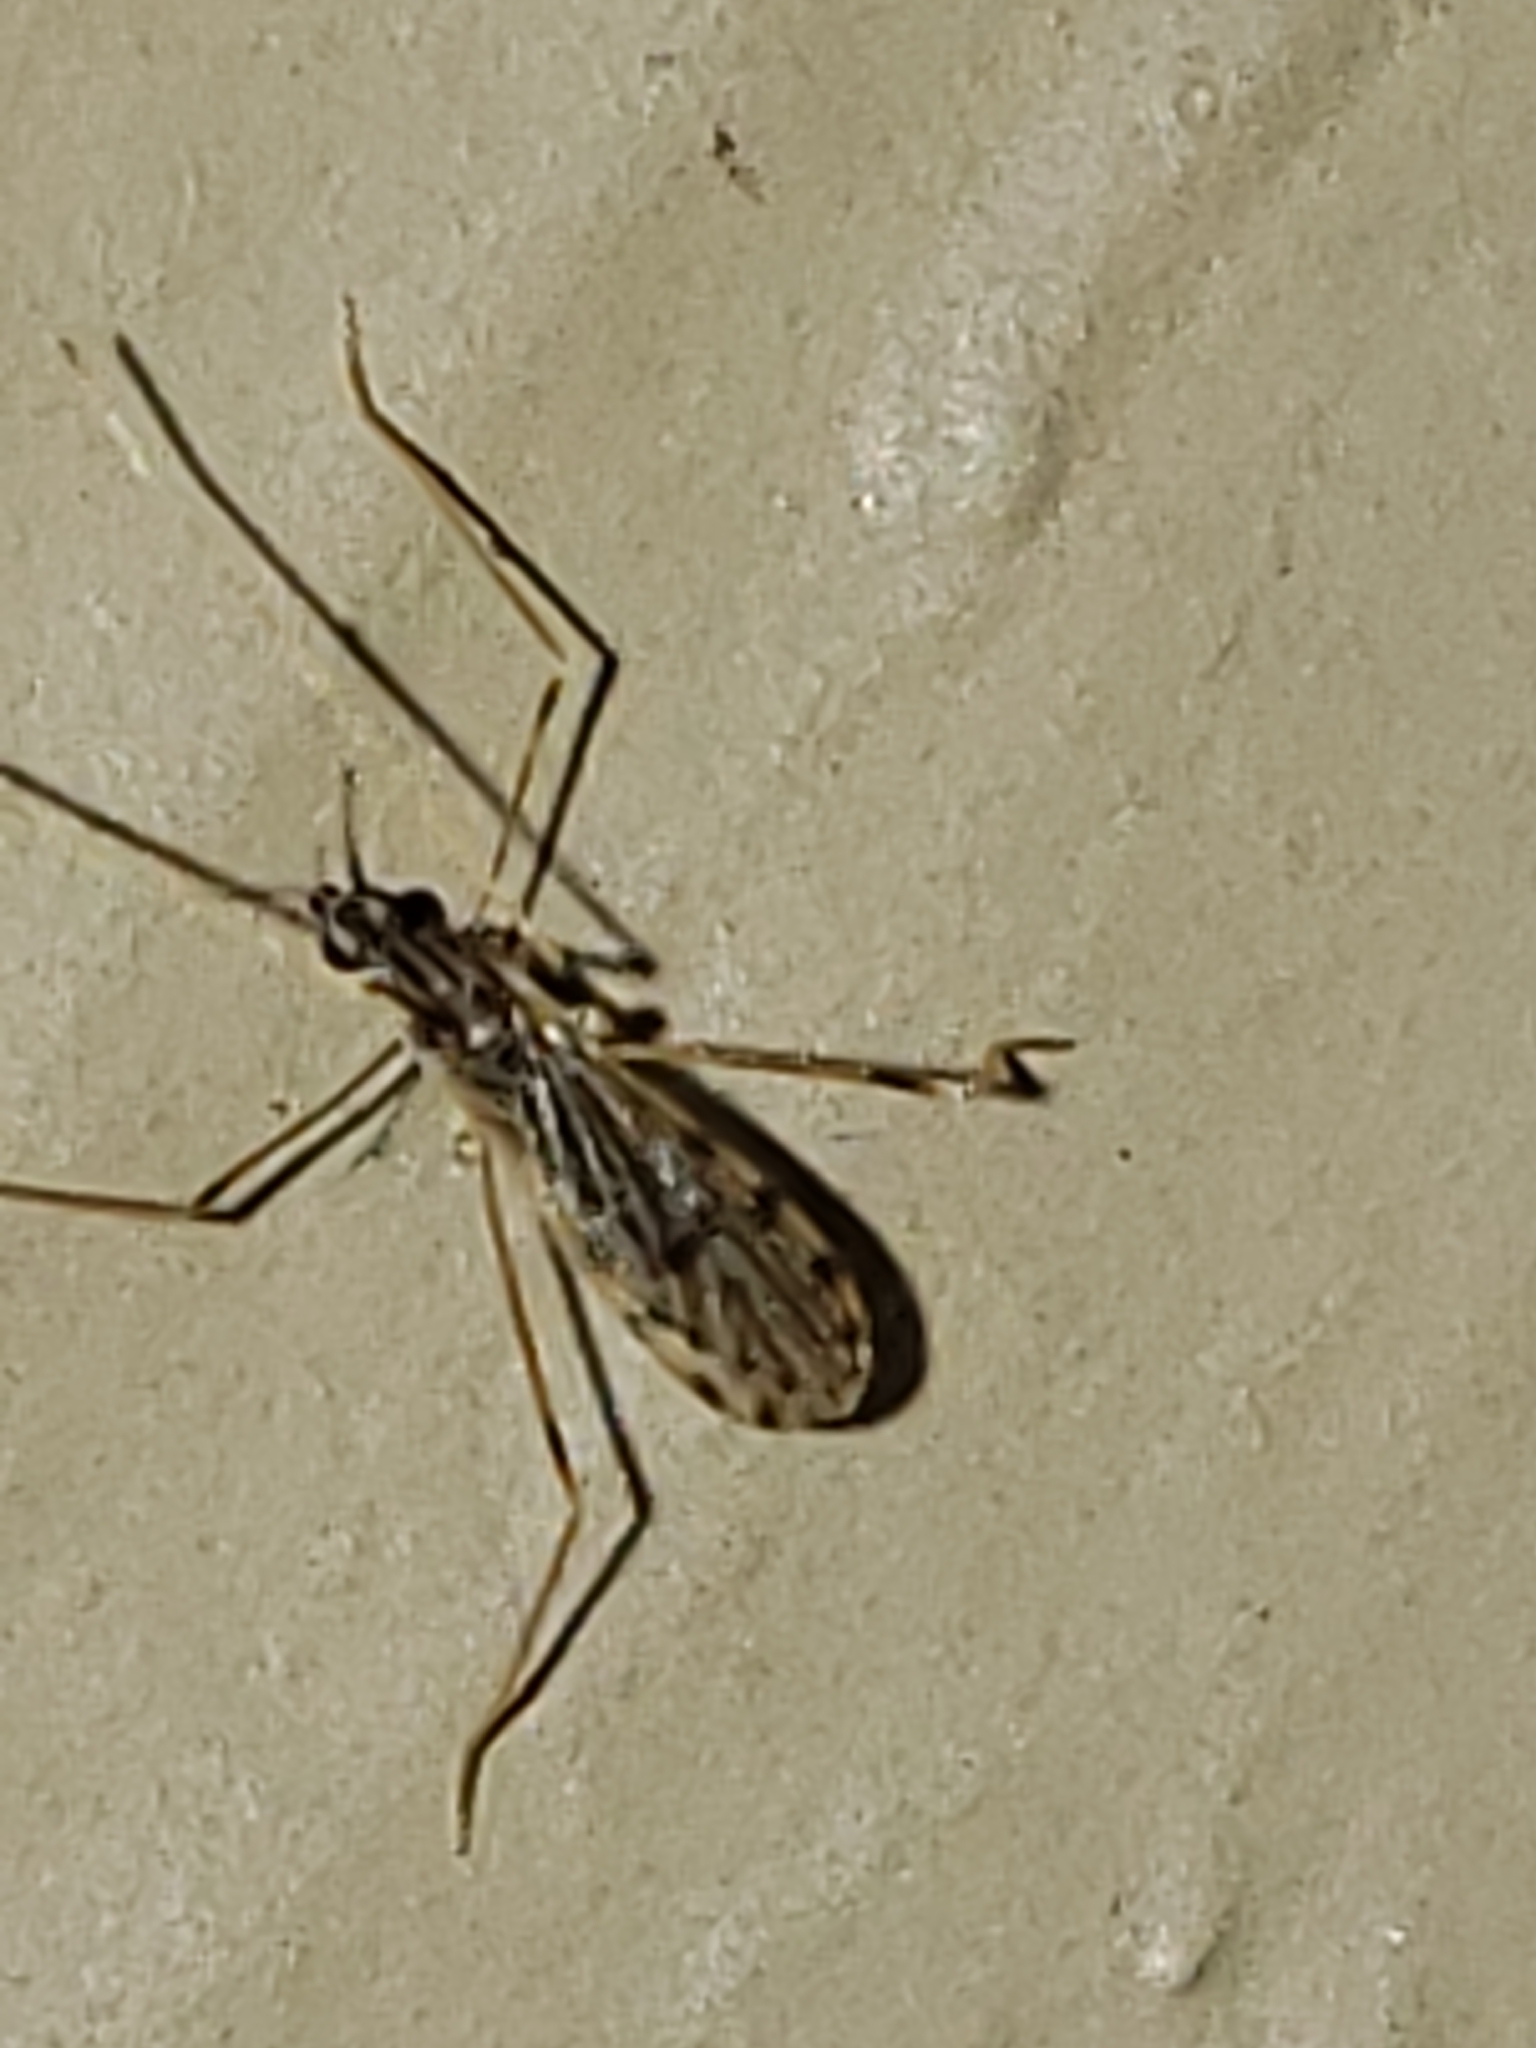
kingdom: Animalia
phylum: Arthropoda
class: Insecta
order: Diptera
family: Limoniidae
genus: Erioptera
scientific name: Erioptera parva
